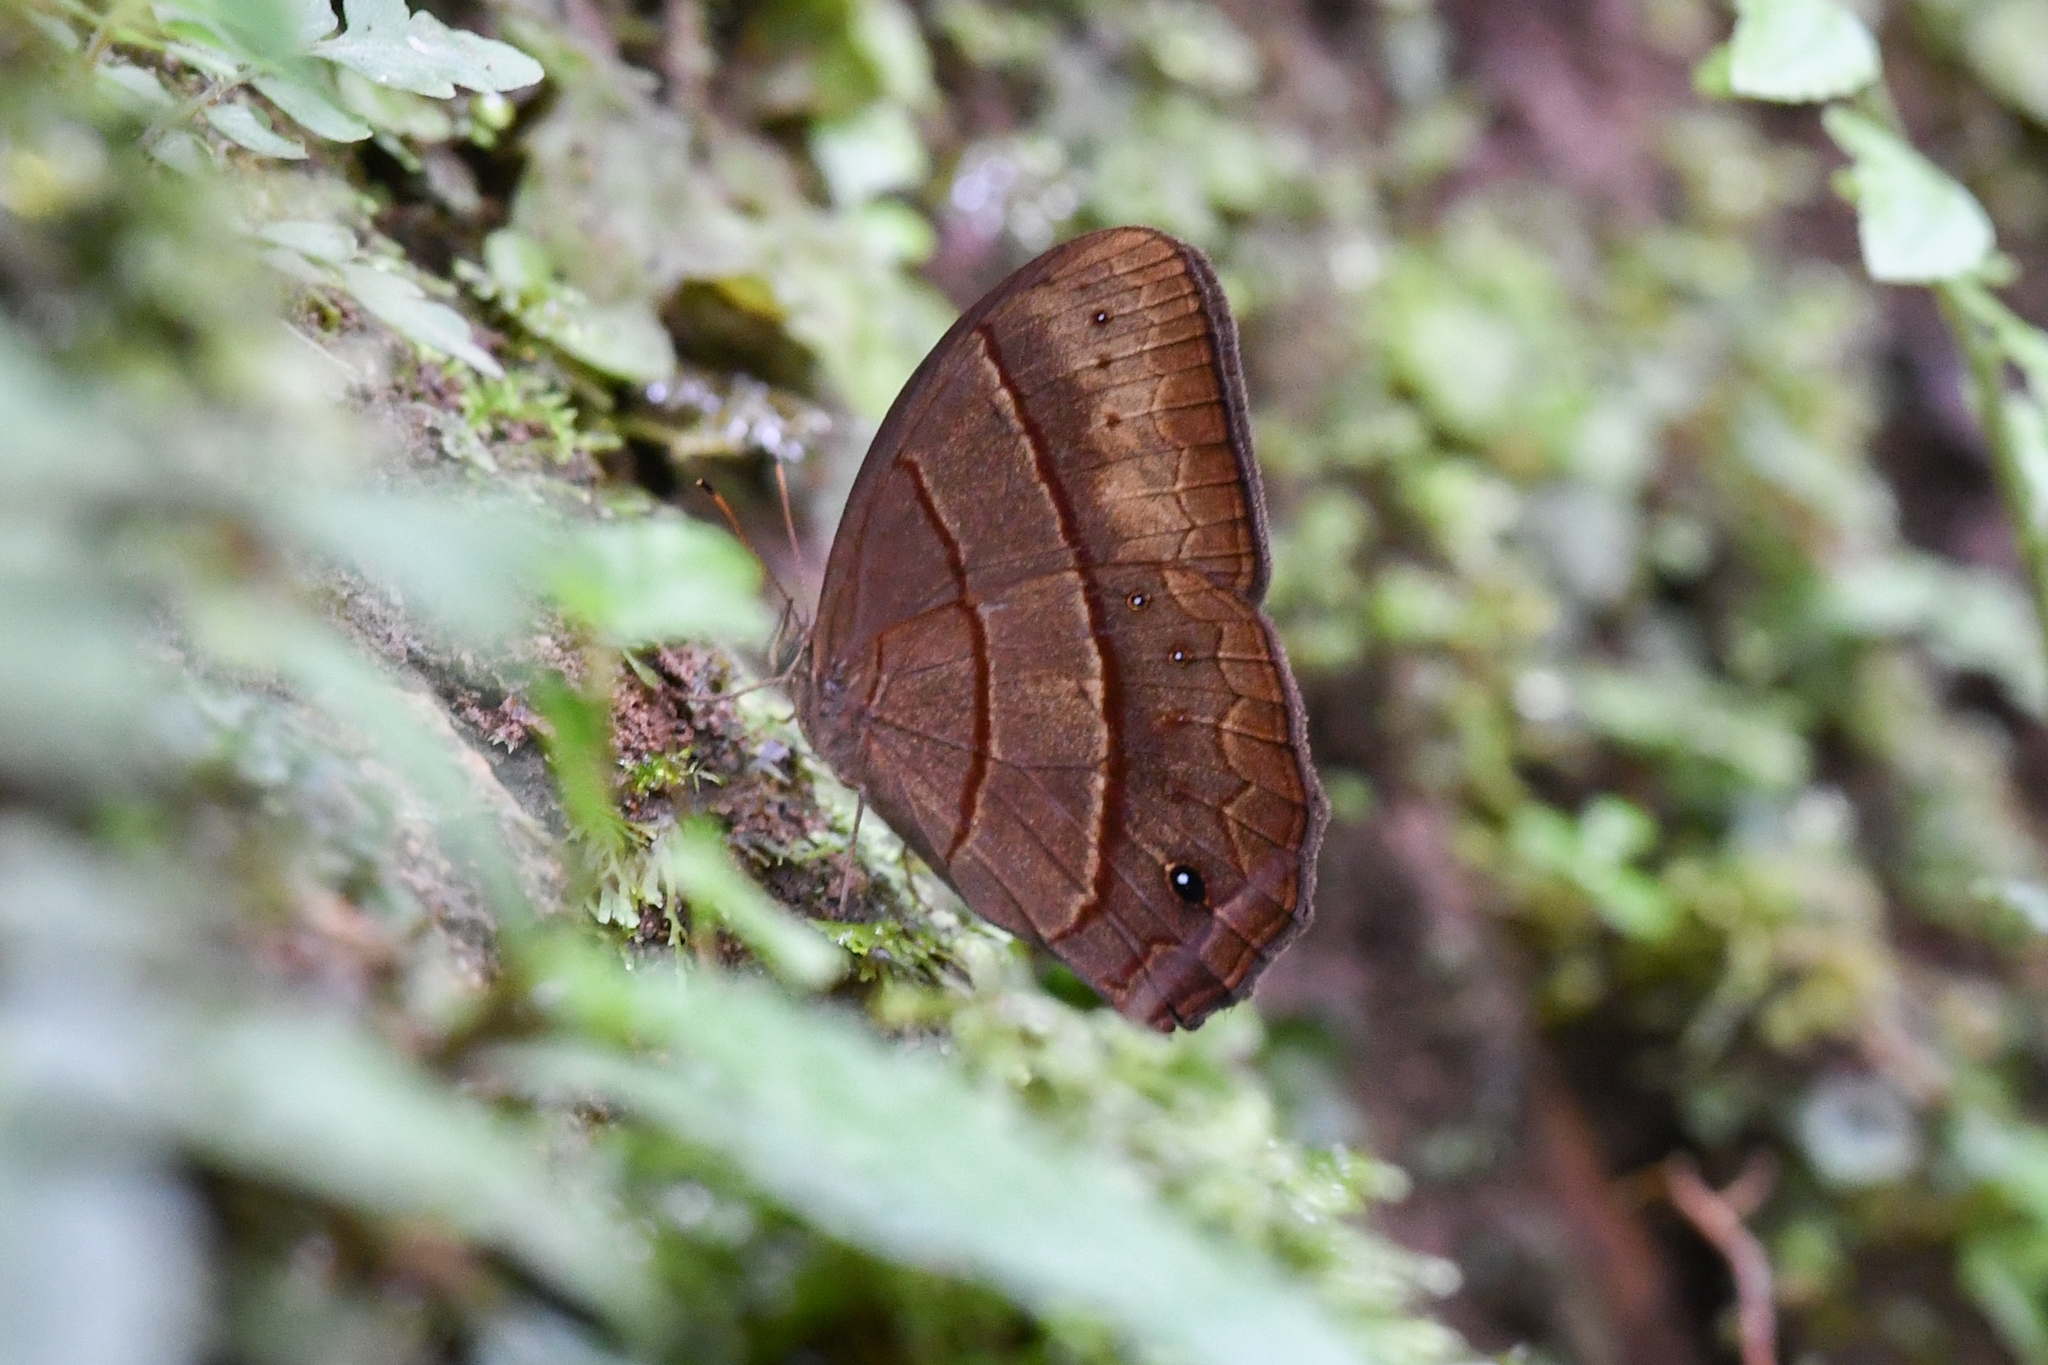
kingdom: Animalia
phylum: Arthropoda
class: Insecta
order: Lepidoptera
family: Nymphalidae
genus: Satyrotaygetis
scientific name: Satyrotaygetis satyrina
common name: Wide-bordered satyr
